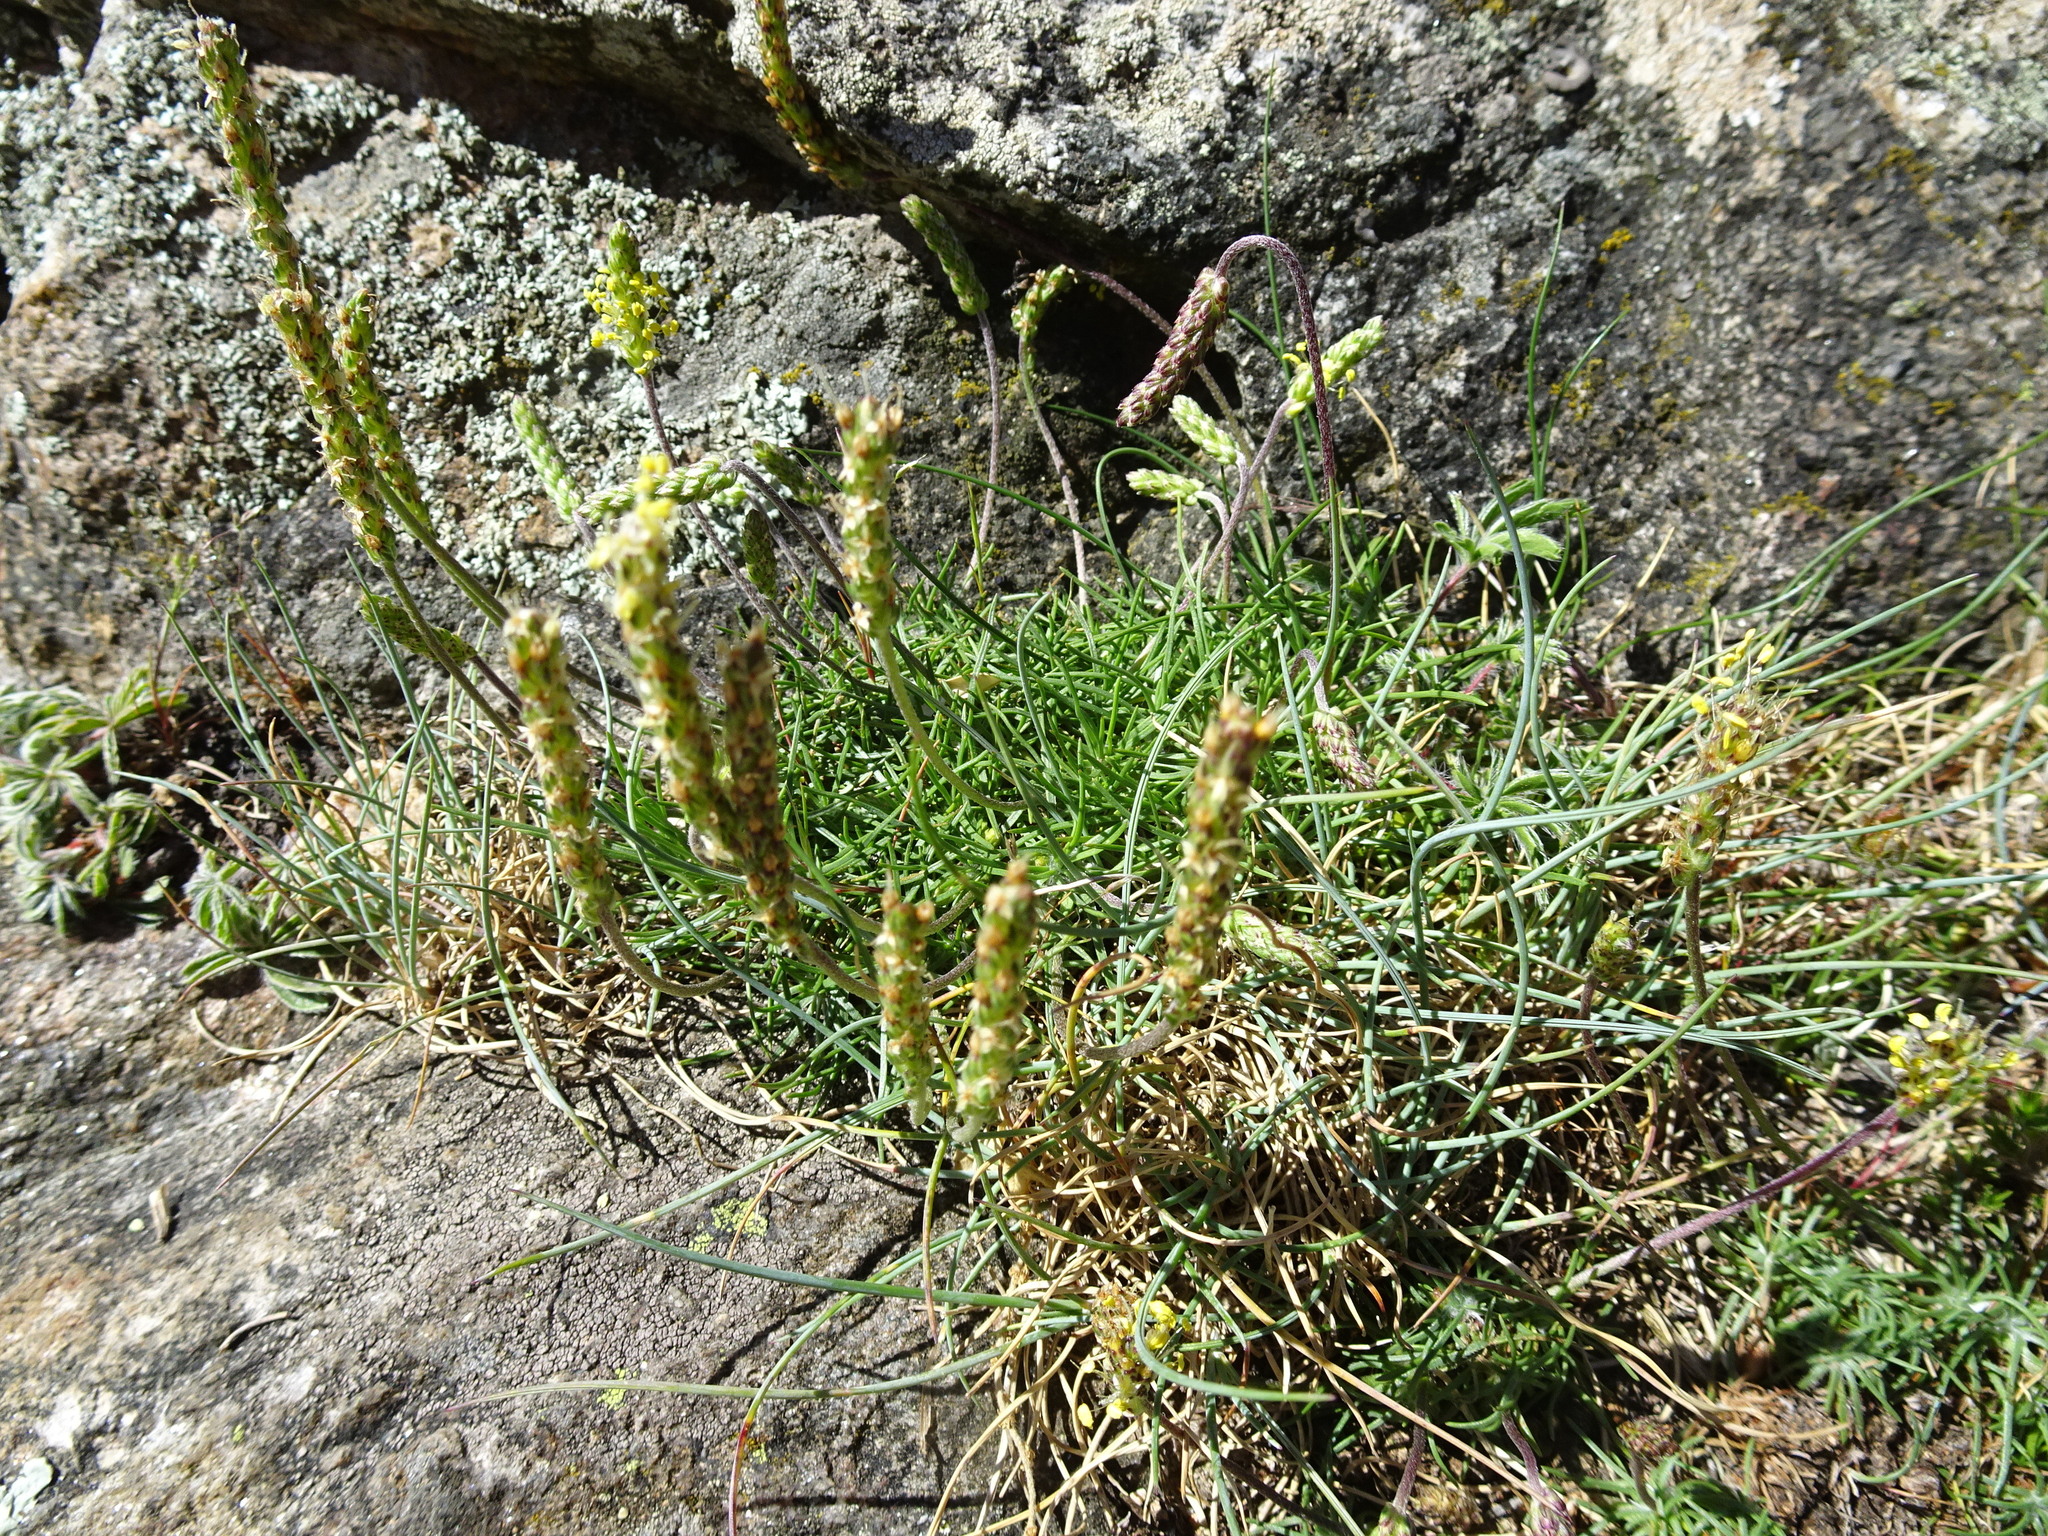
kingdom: Plantae
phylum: Tracheophyta
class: Magnoliopsida
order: Lamiales
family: Plantaginaceae
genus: Plantago
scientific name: Plantago subulata
